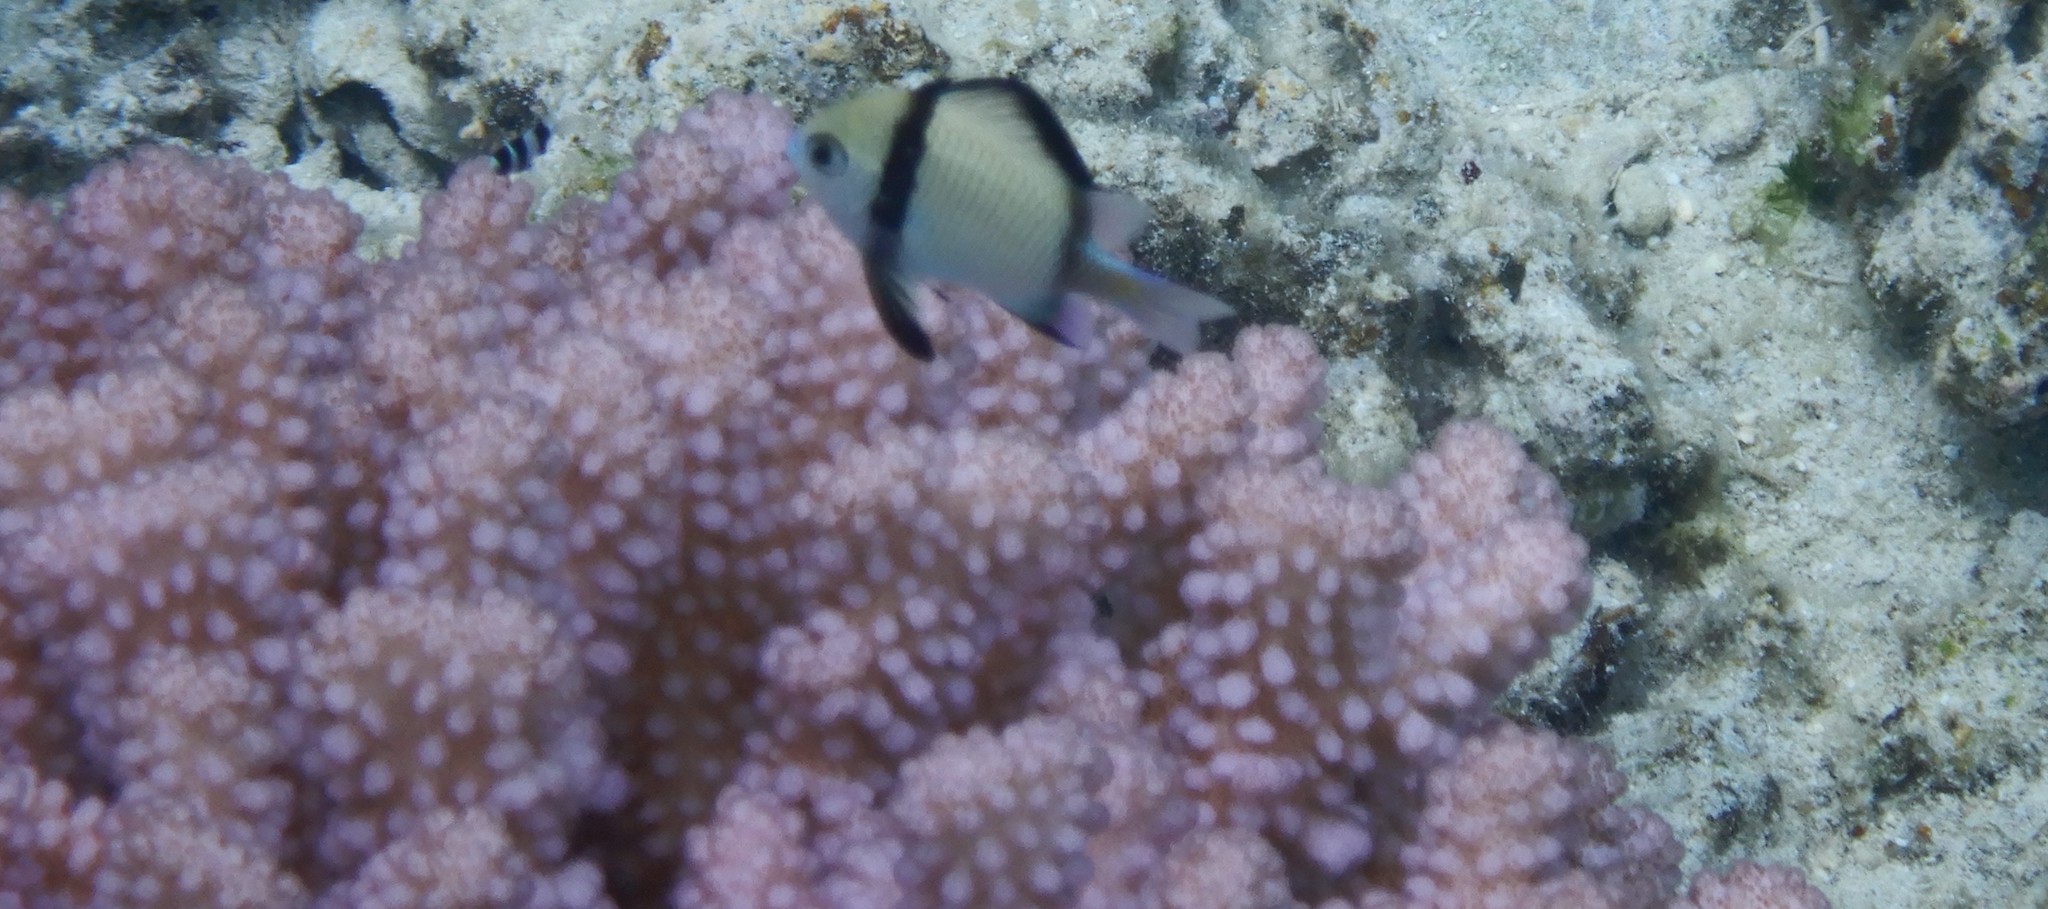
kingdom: Animalia
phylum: Chordata
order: Perciformes
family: Pomacentridae
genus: Dascyllus
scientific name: Dascyllus reticulatus
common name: Reticulated dascyllus
